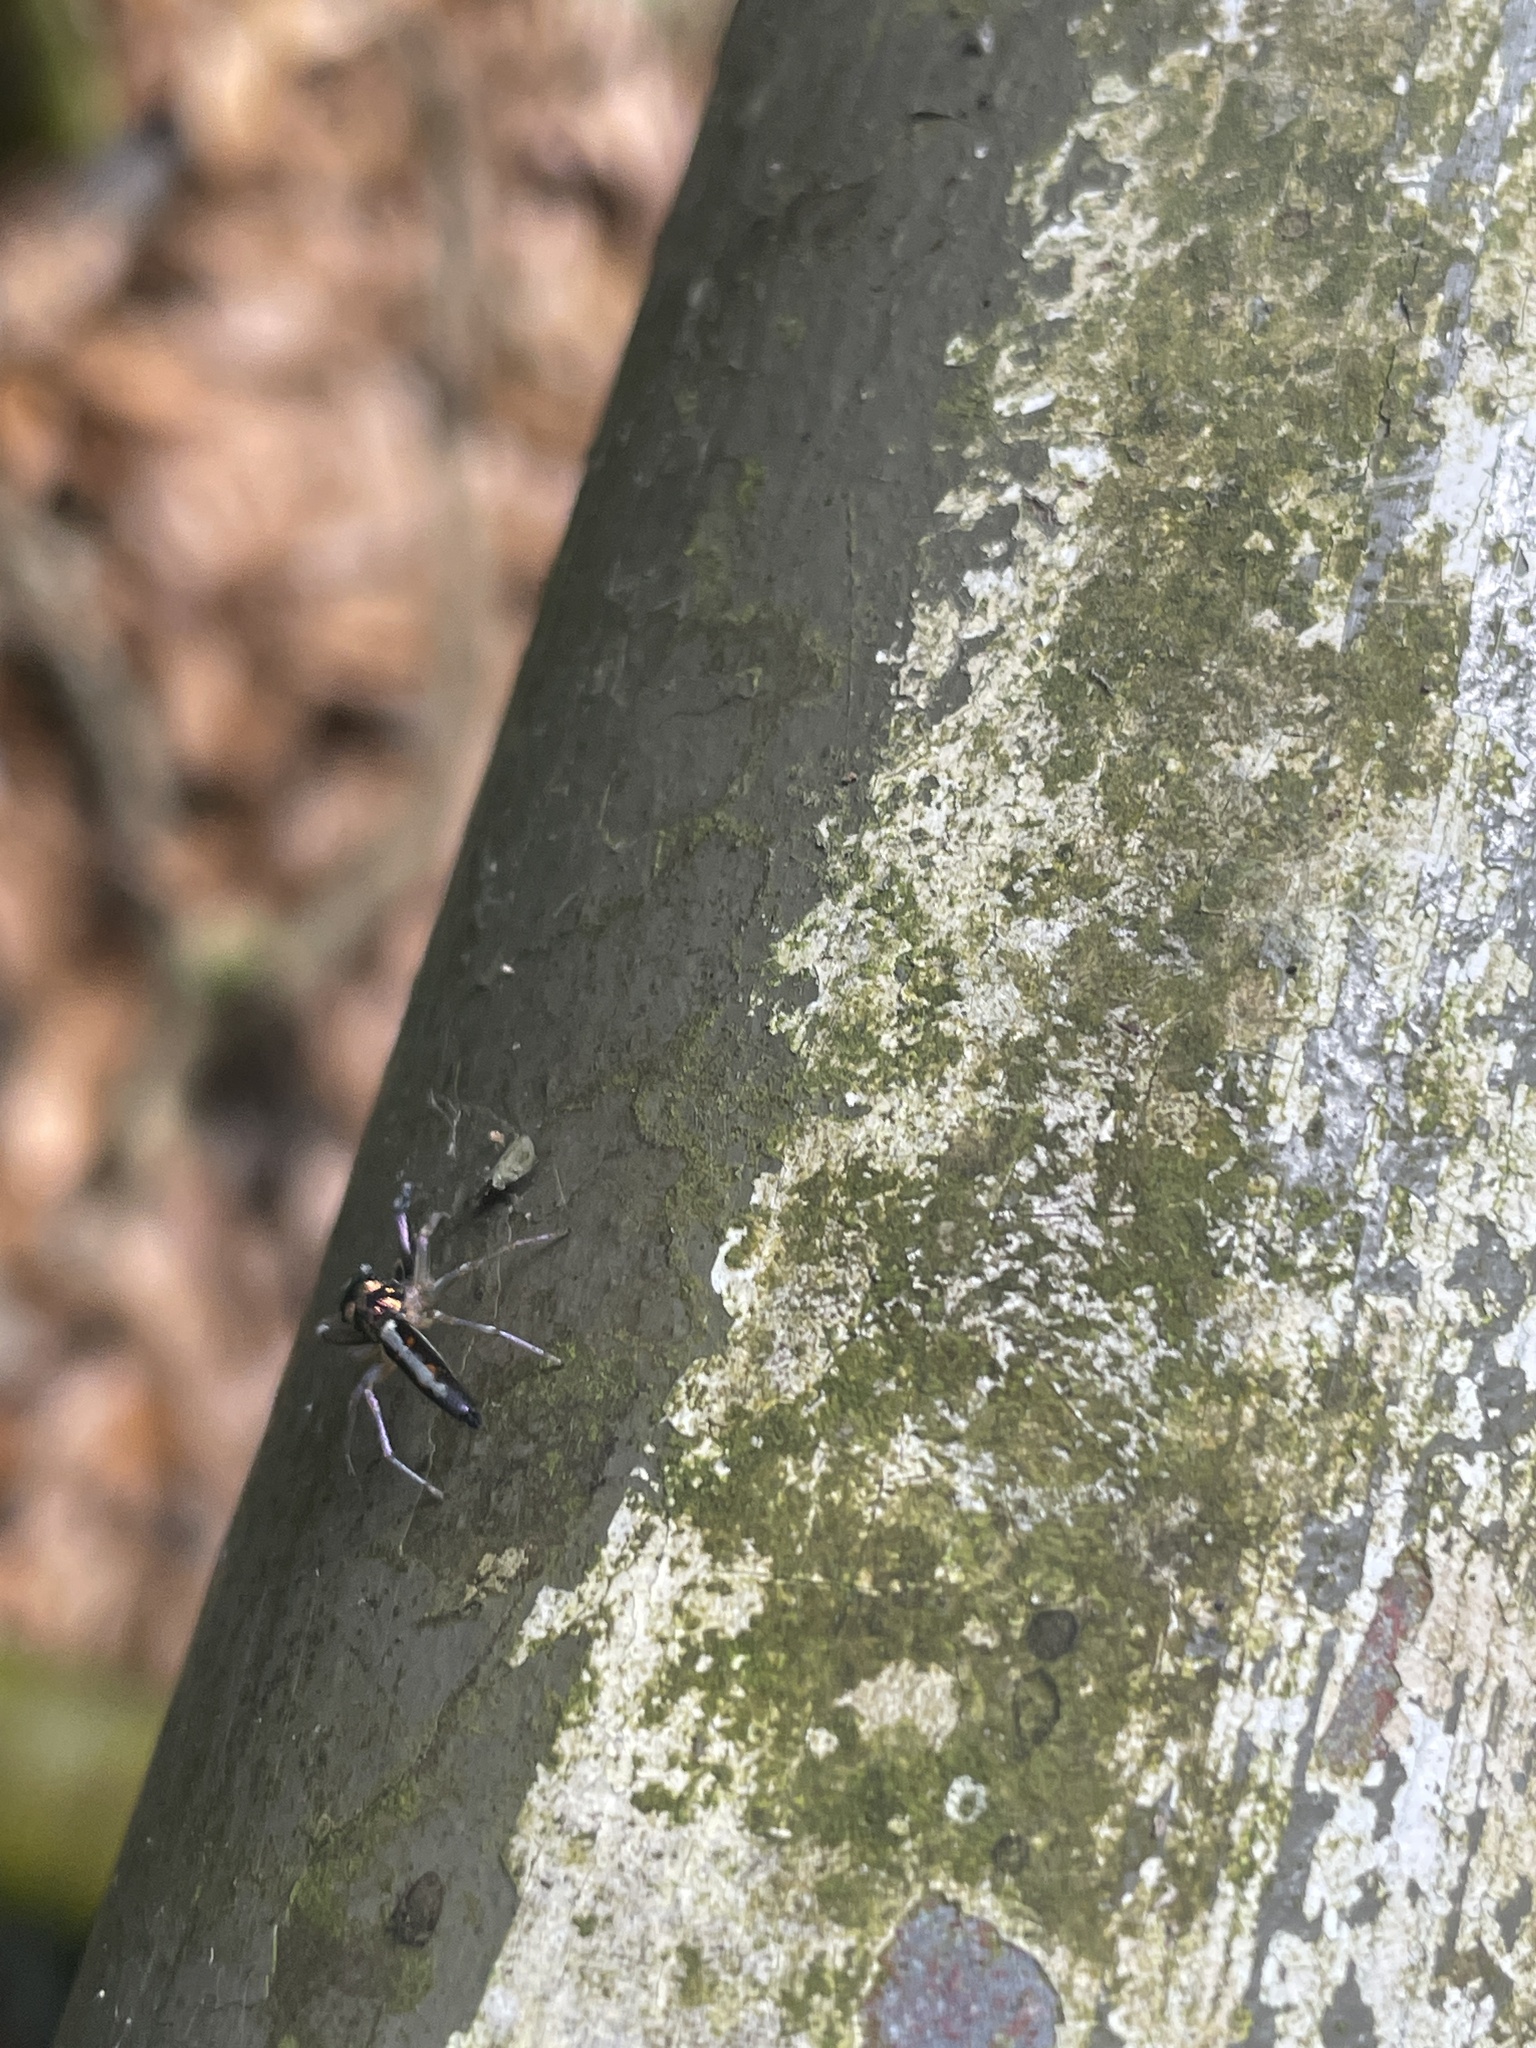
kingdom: Animalia
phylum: Arthropoda
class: Arachnida
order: Araneae
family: Salticidae
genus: Chrysilla
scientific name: Chrysilla acerosa
